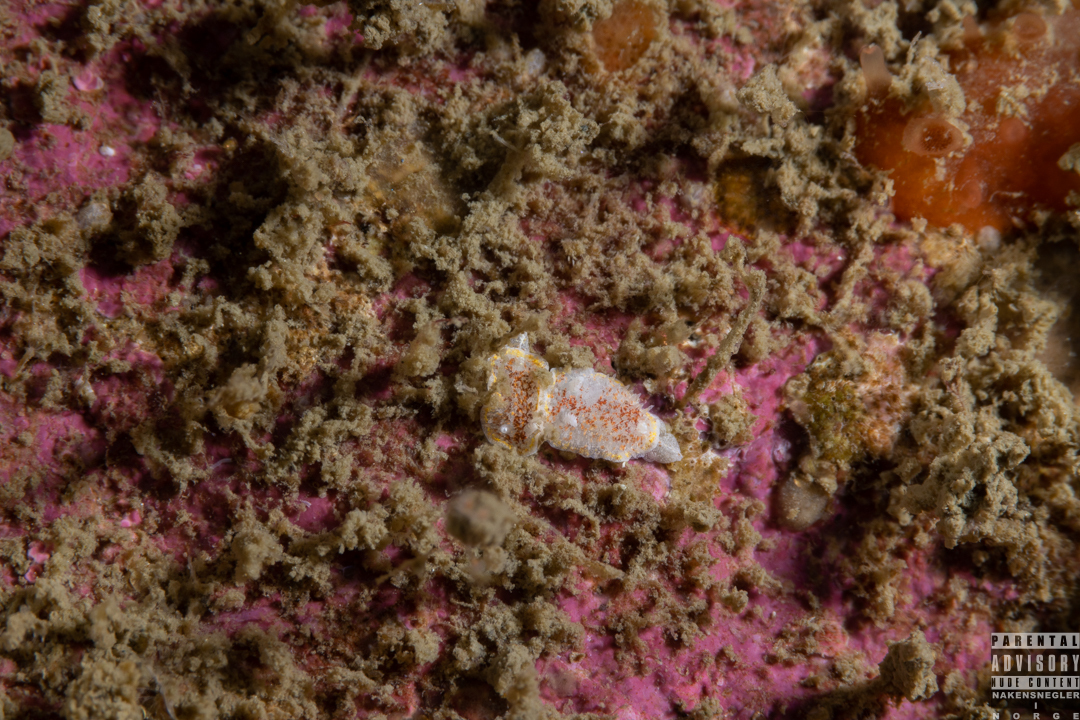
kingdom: Animalia
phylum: Mollusca
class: Gastropoda
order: Nudibranchia
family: Calycidorididae
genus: Diaphorodoris
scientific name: Diaphorodoris luteocincta
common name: Fried egg nudibranch
